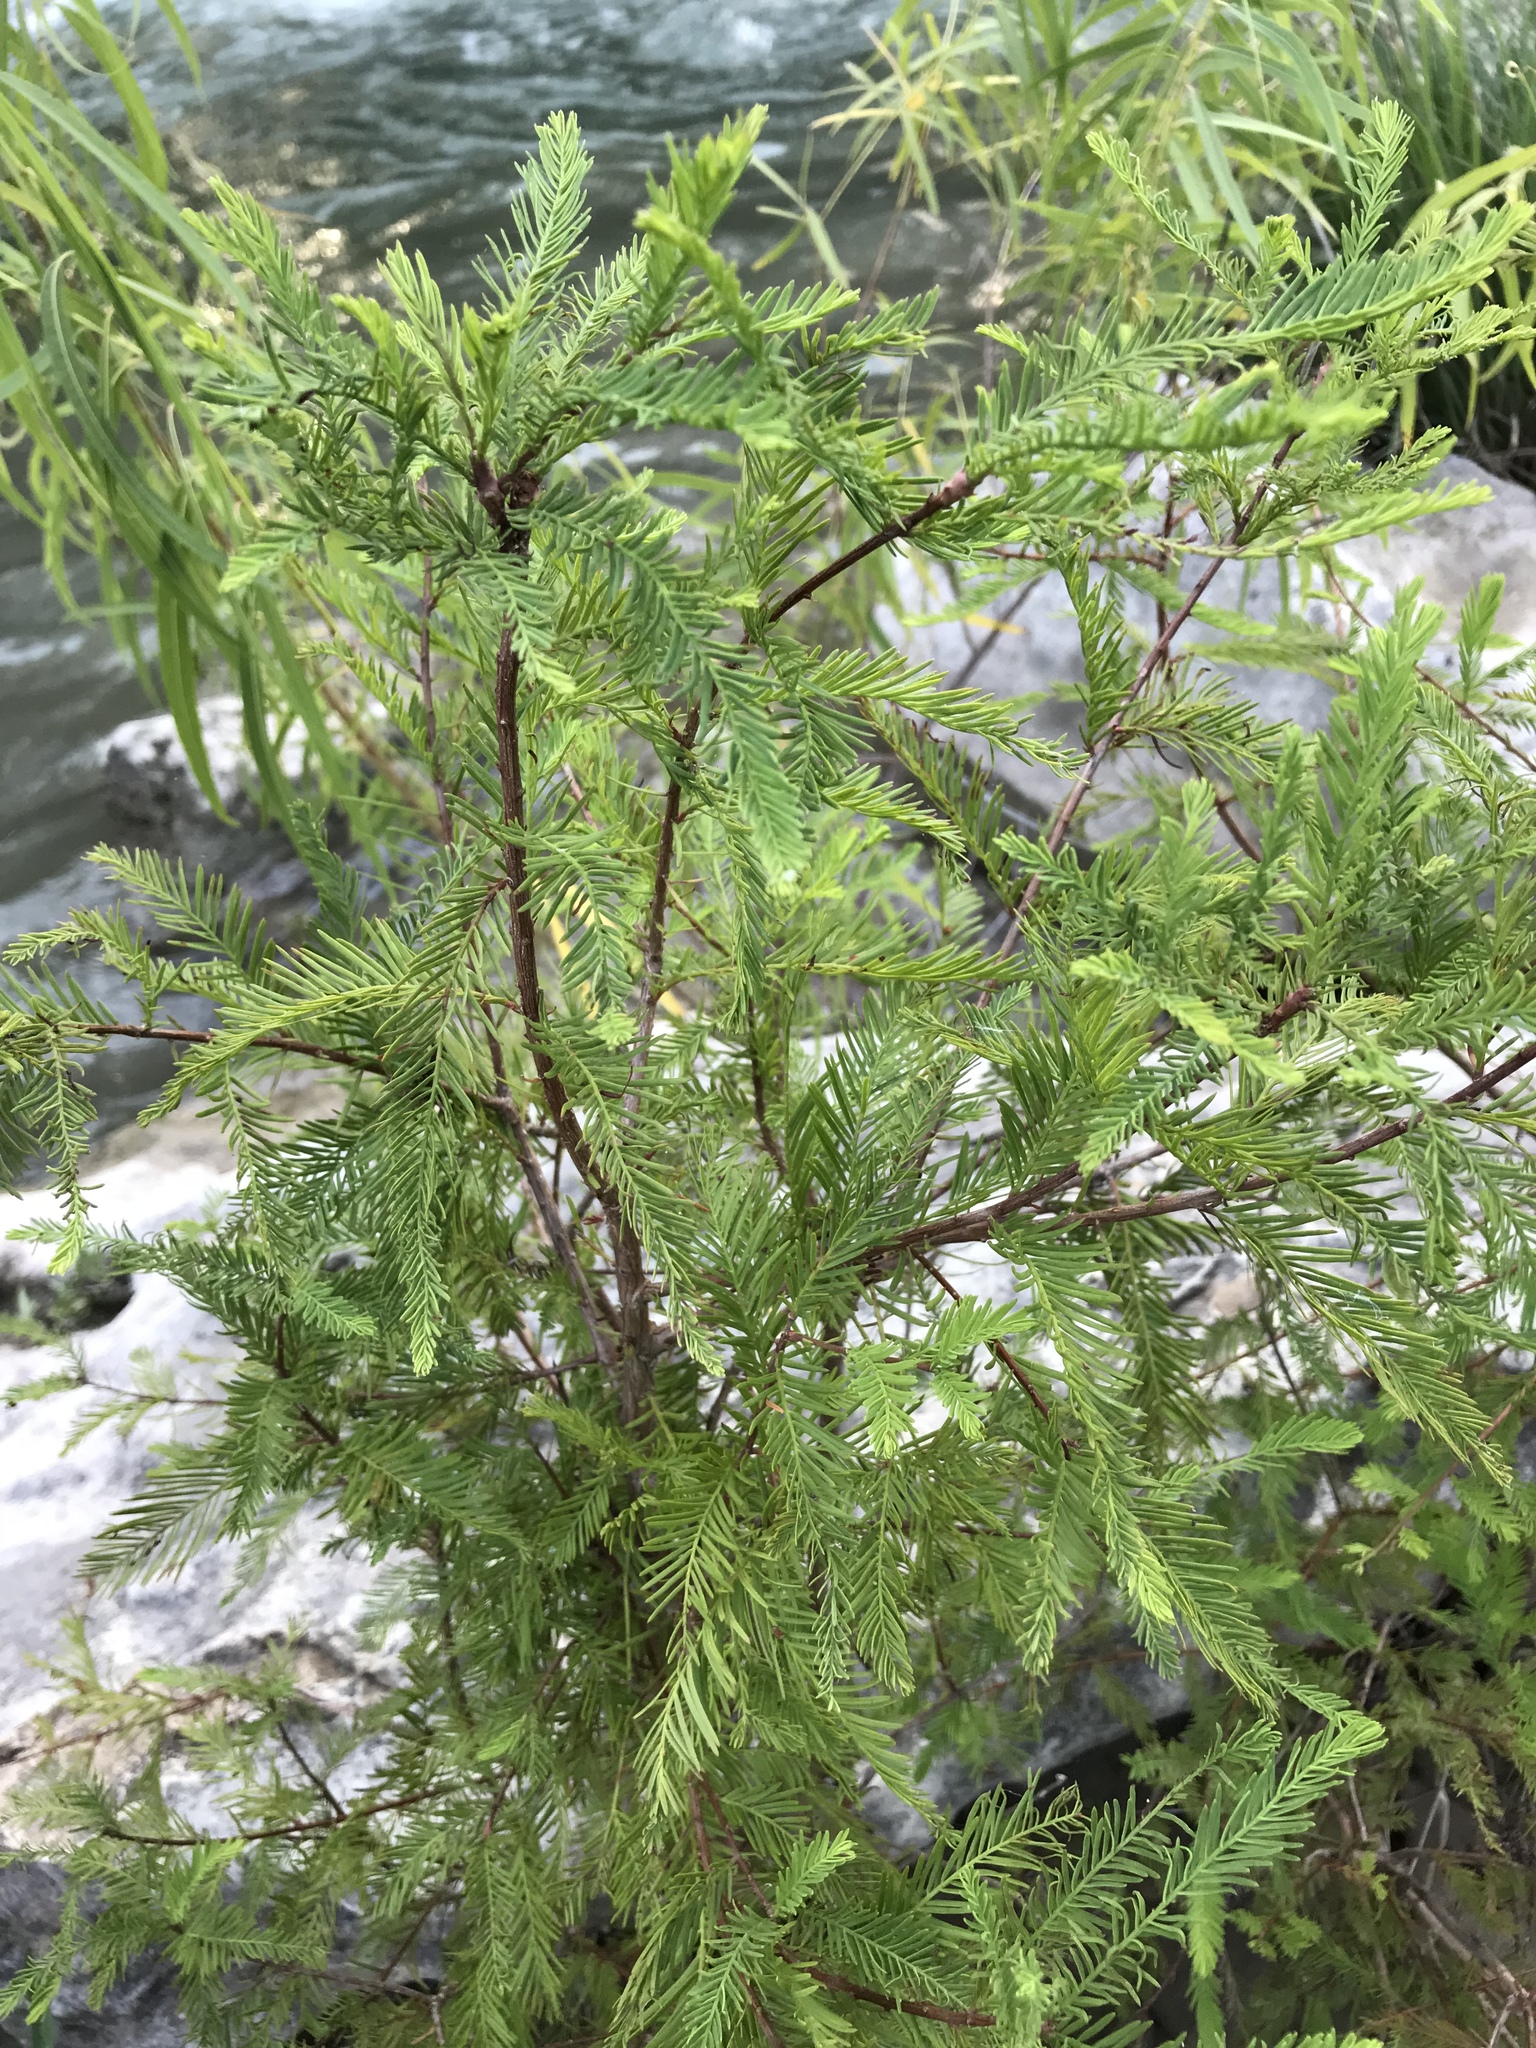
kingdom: Plantae
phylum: Tracheophyta
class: Pinopsida
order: Pinales
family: Cupressaceae
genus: Taxodium
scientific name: Taxodium distichum
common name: Bald cypress
